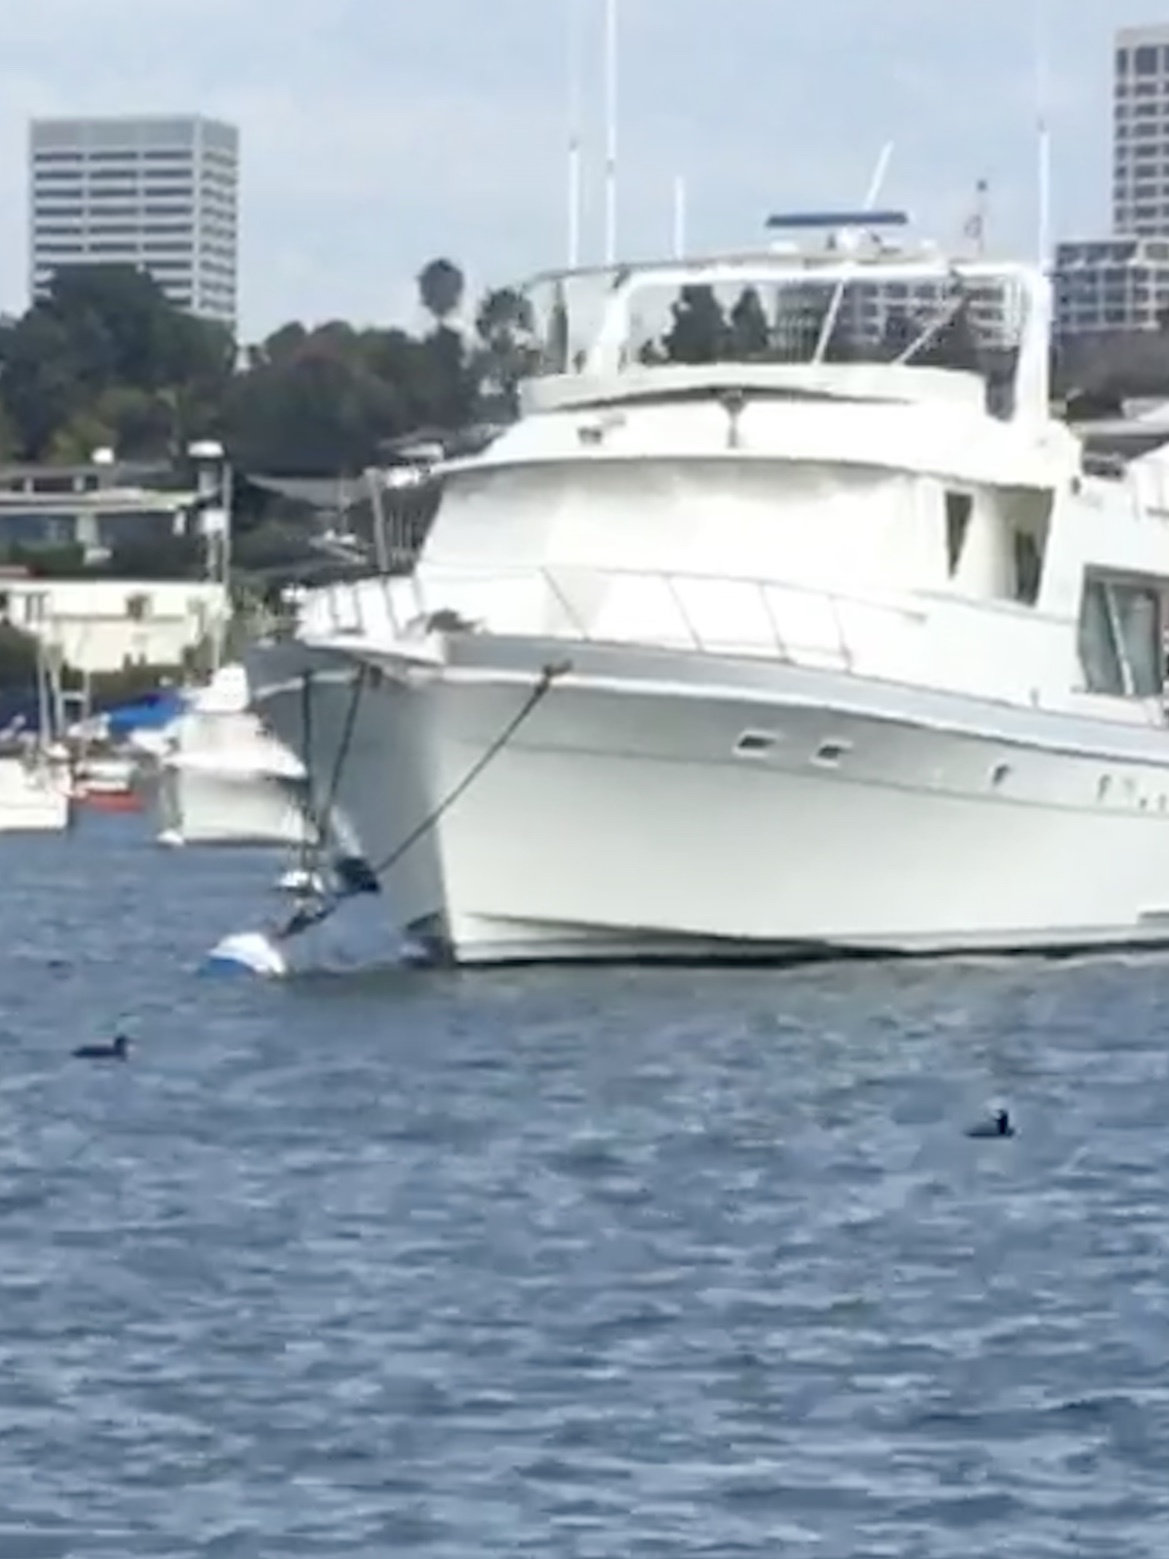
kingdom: Animalia
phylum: Chordata
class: Aves
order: Anseriformes
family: Anatidae
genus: Melanitta
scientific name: Melanitta perspicillata
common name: Surf scoter
